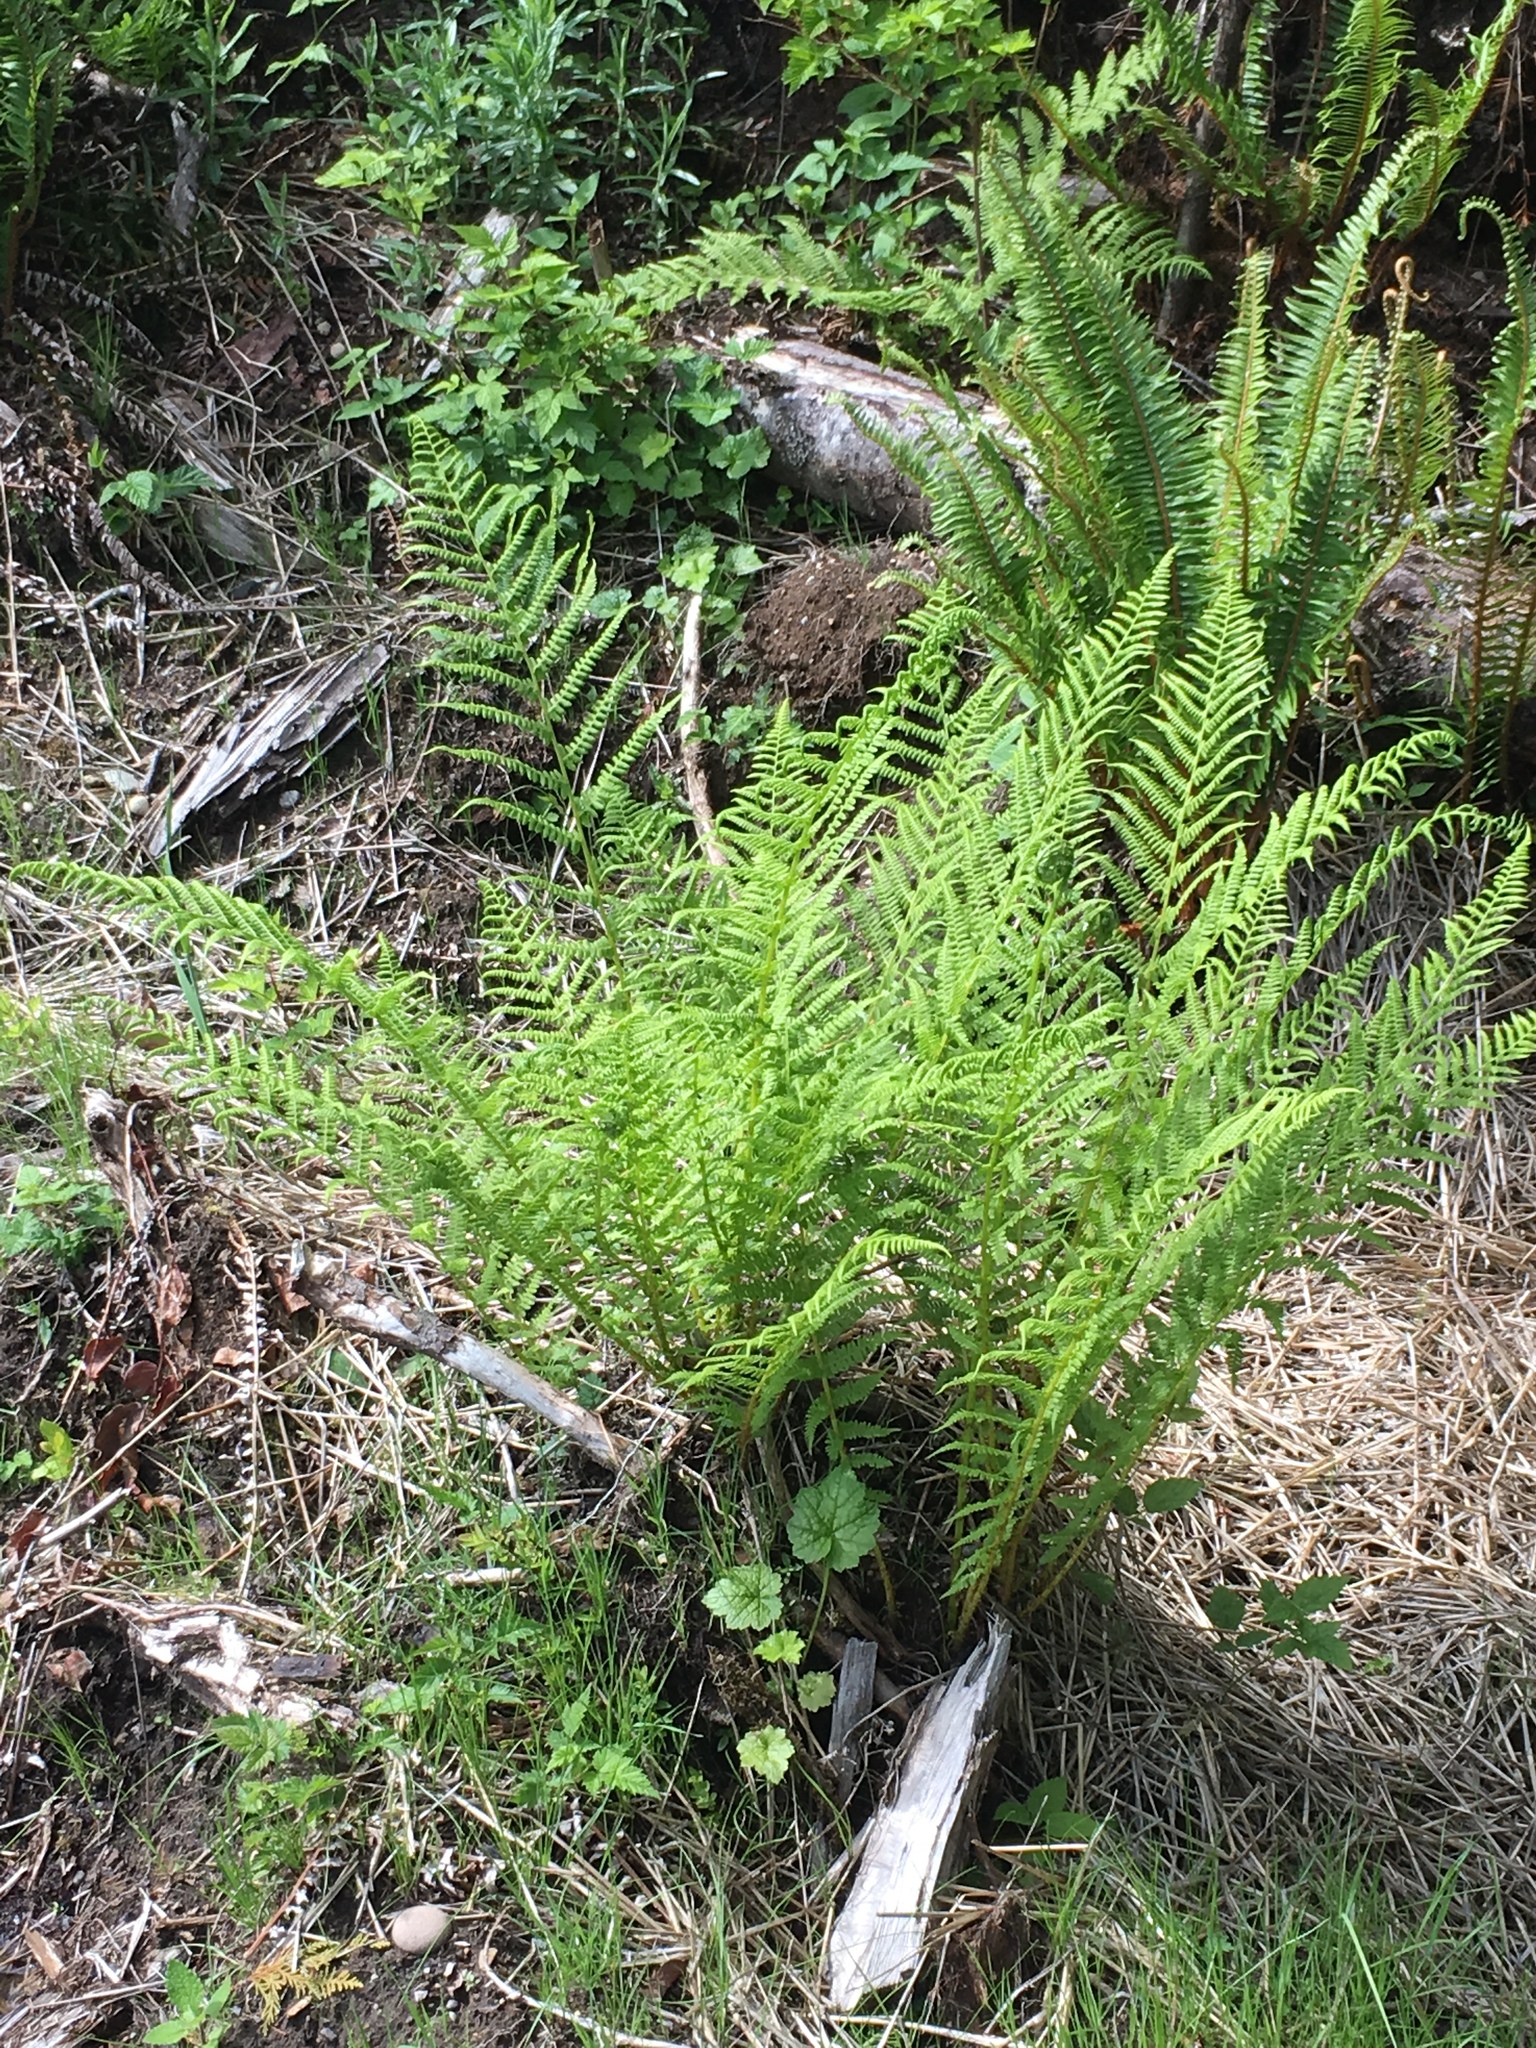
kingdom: Plantae
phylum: Tracheophyta
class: Polypodiopsida
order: Polypodiales
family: Athyriaceae
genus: Athyrium
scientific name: Athyrium cyclosorum
